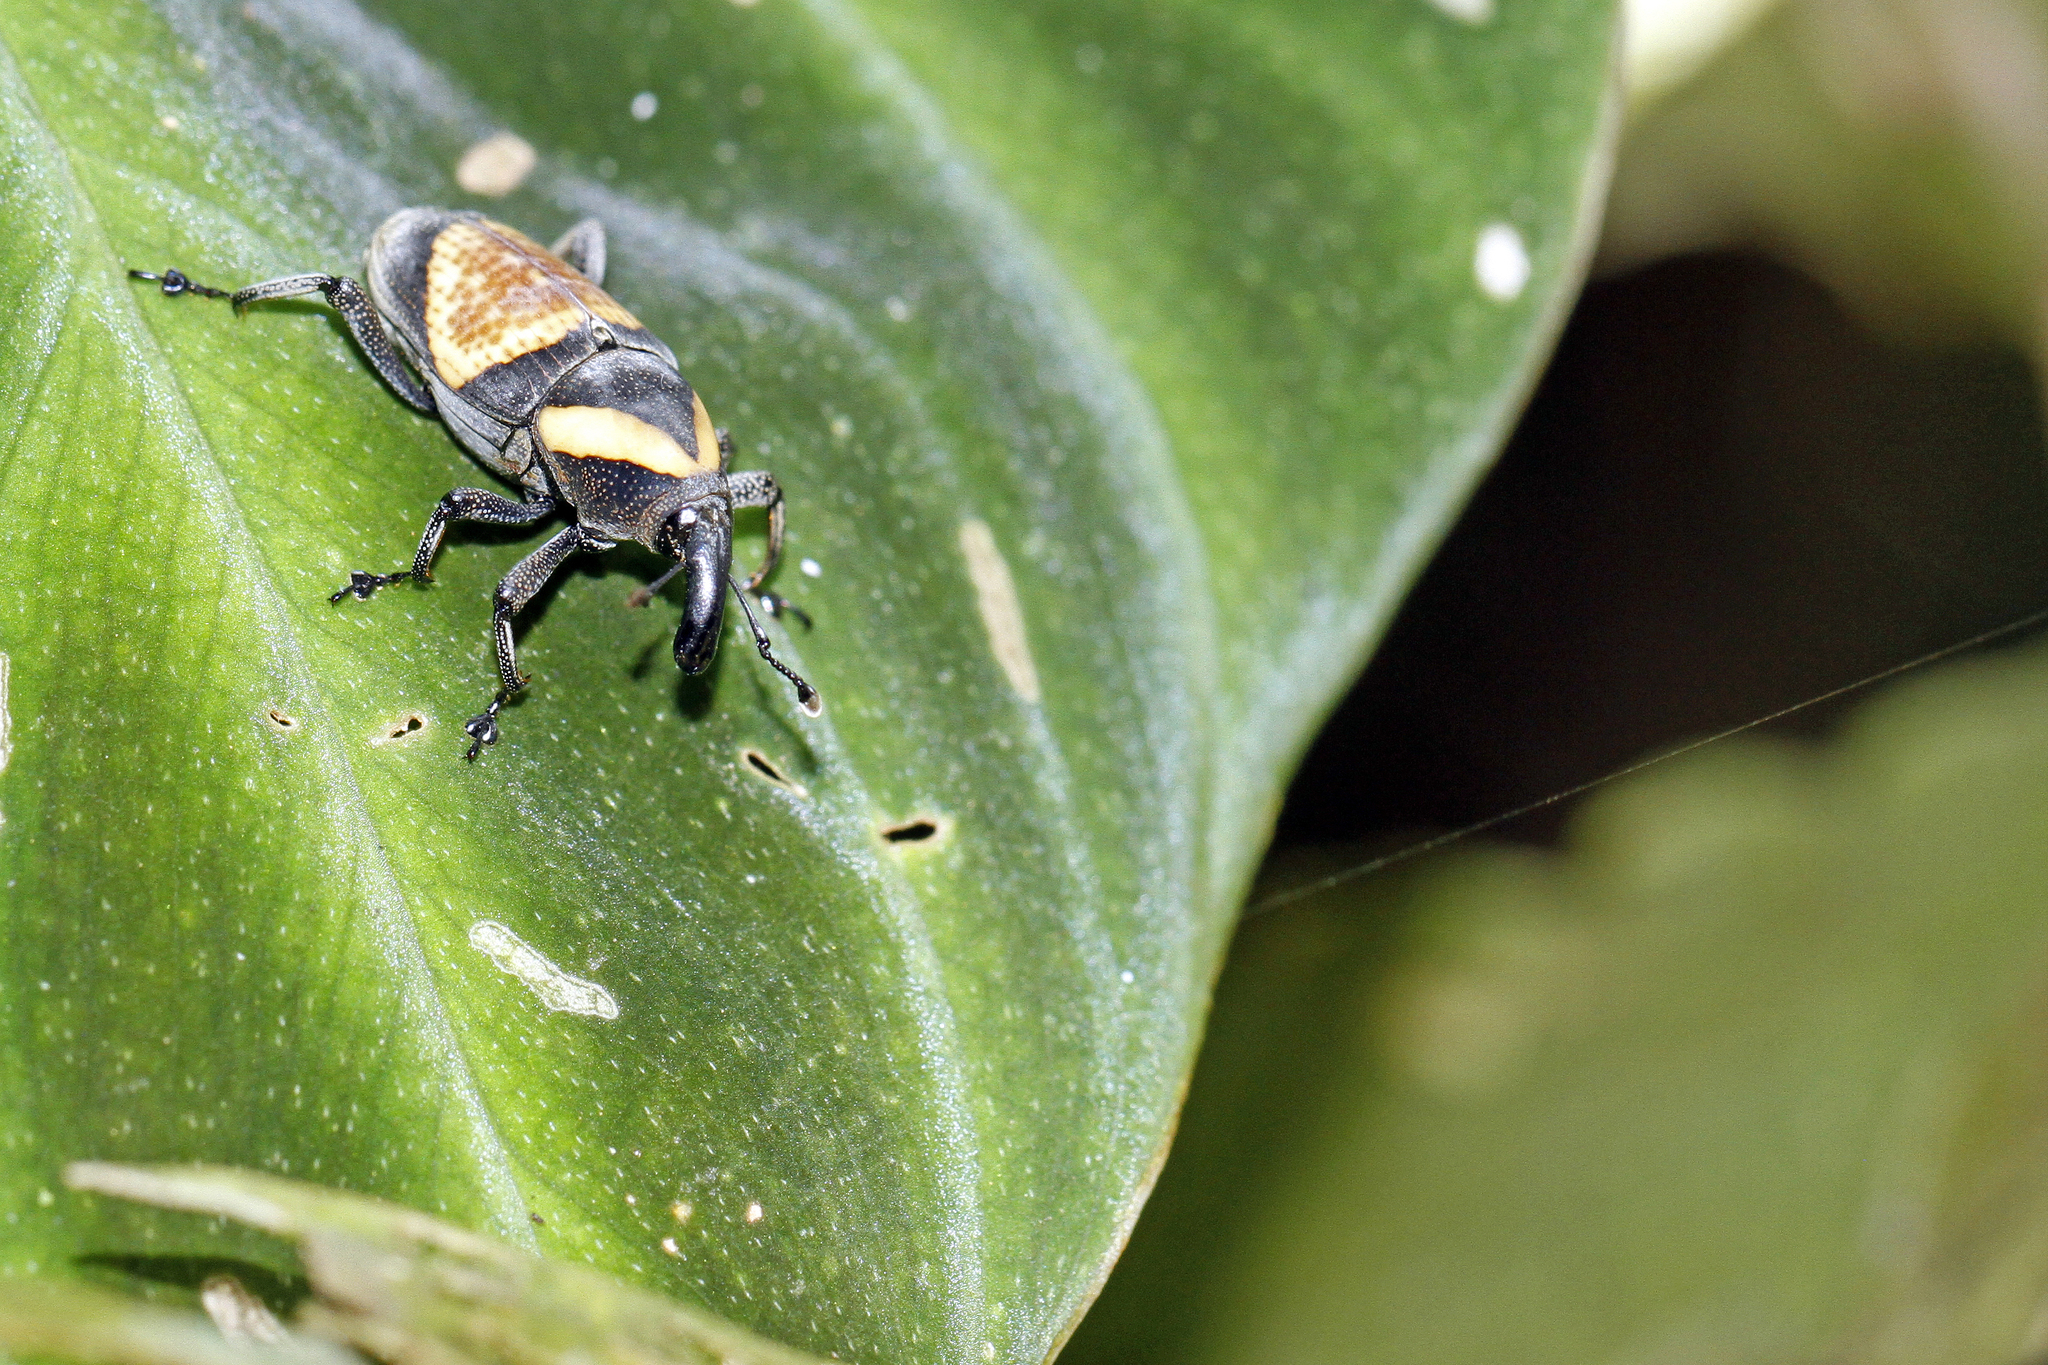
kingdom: Animalia
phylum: Arthropoda
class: Insecta
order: Coleoptera
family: Dryophthoridae
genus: Cactophagus
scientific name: Cactophagus
